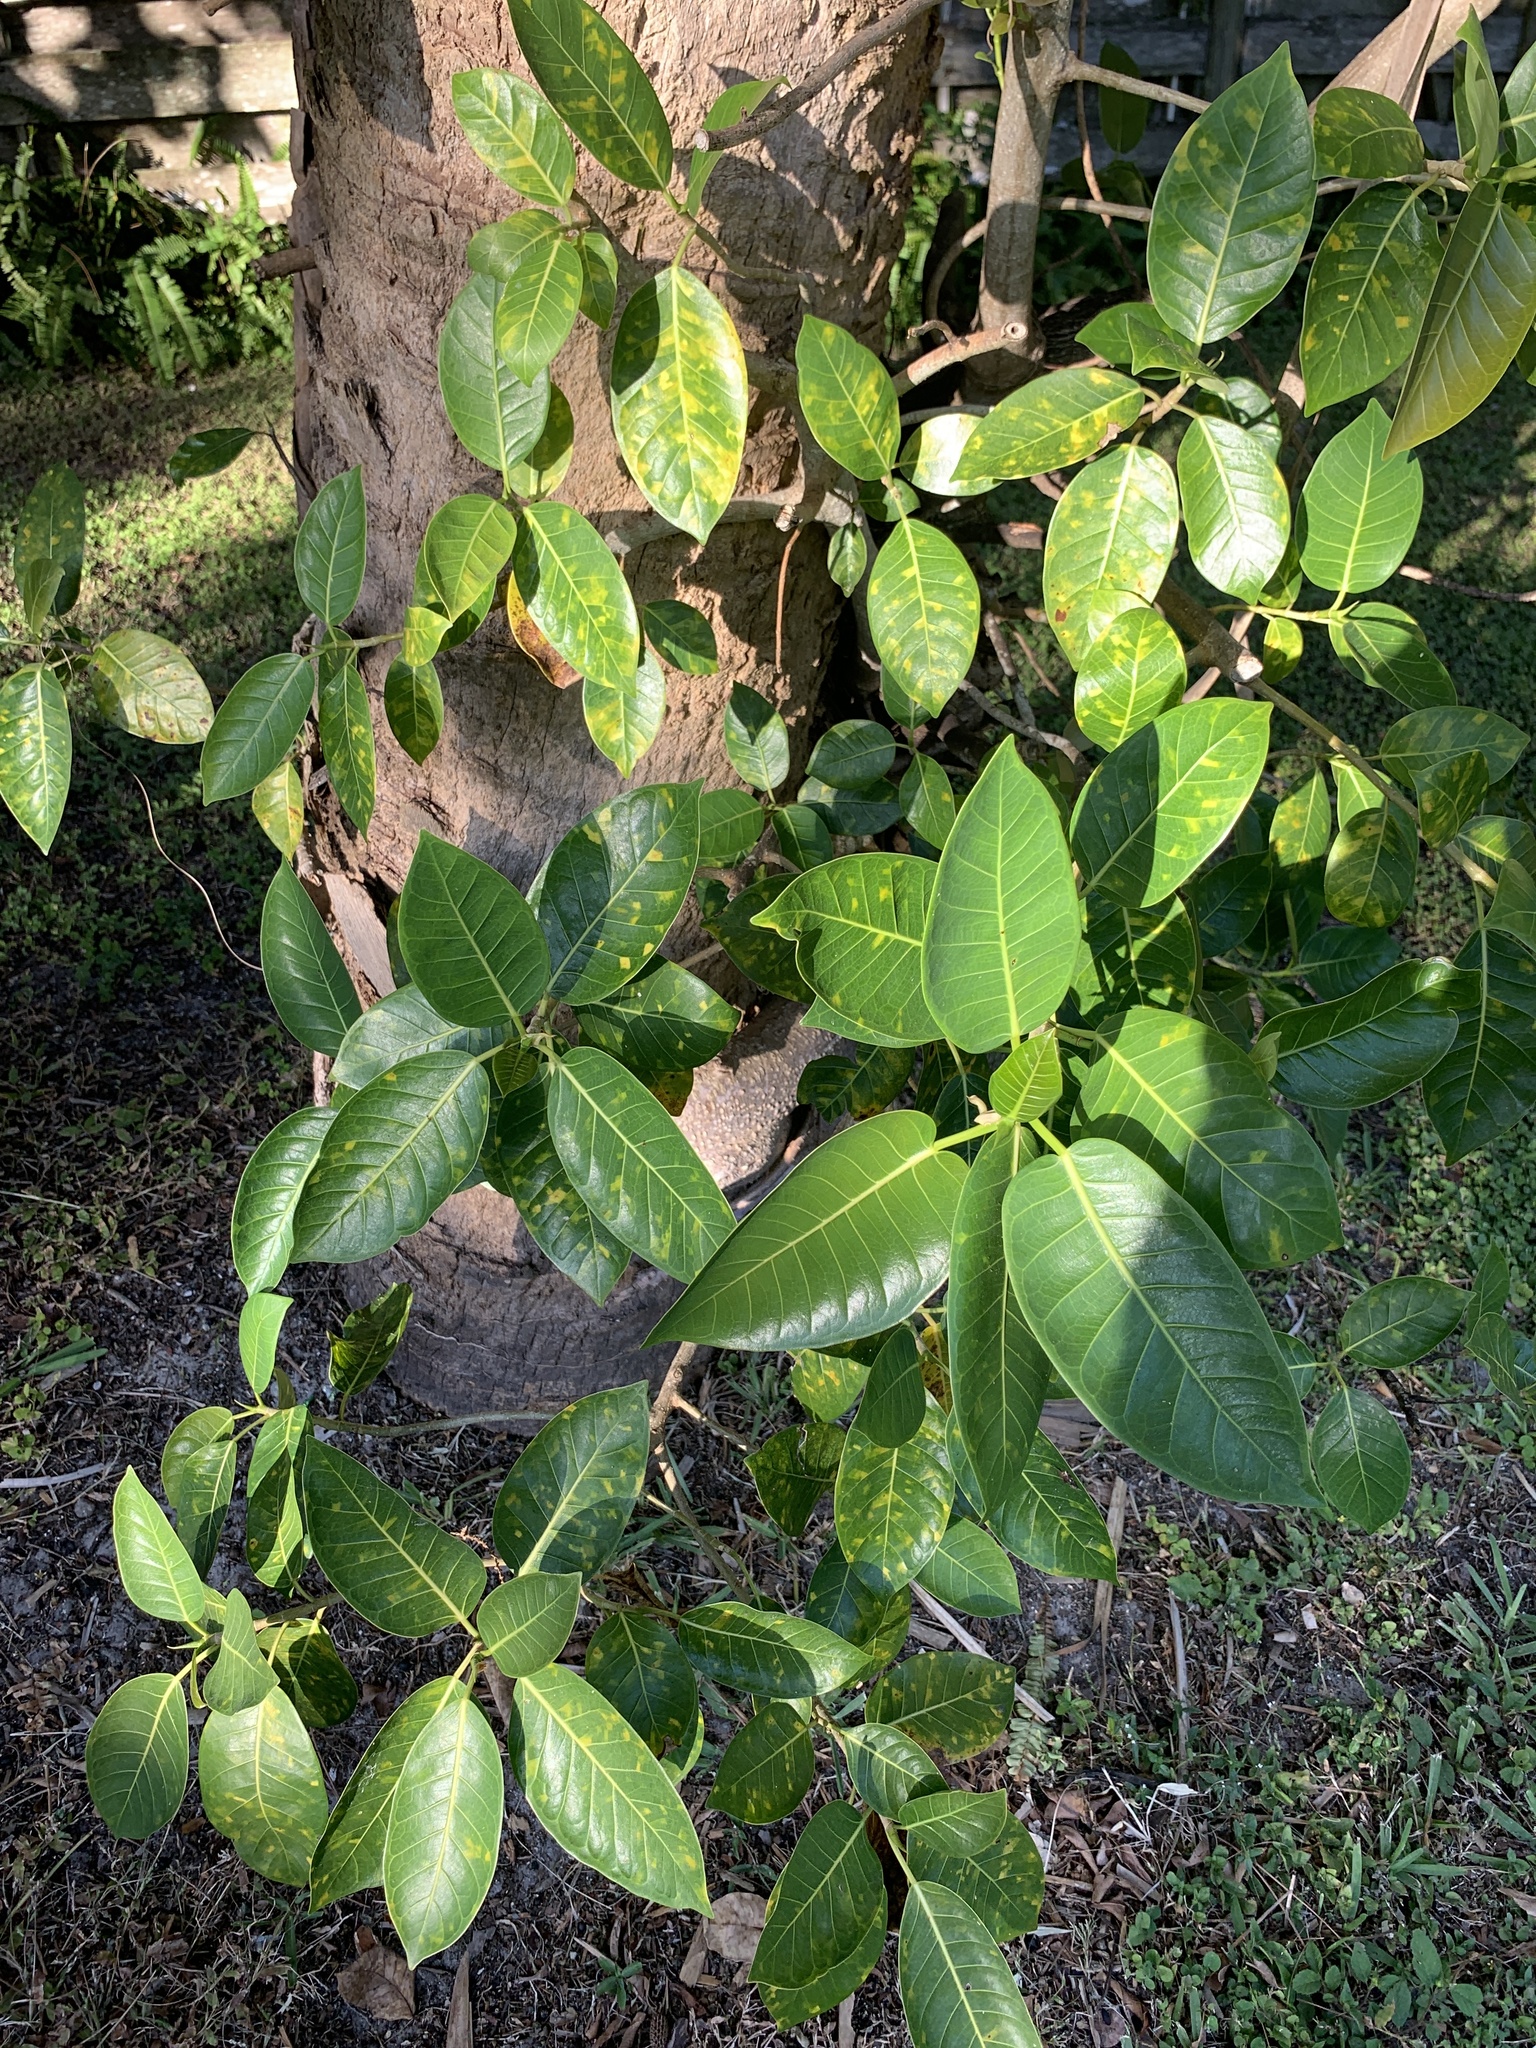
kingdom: Plantae
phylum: Tracheophyta
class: Magnoliopsida
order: Rosales
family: Moraceae
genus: Ficus
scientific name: Ficus aurea
